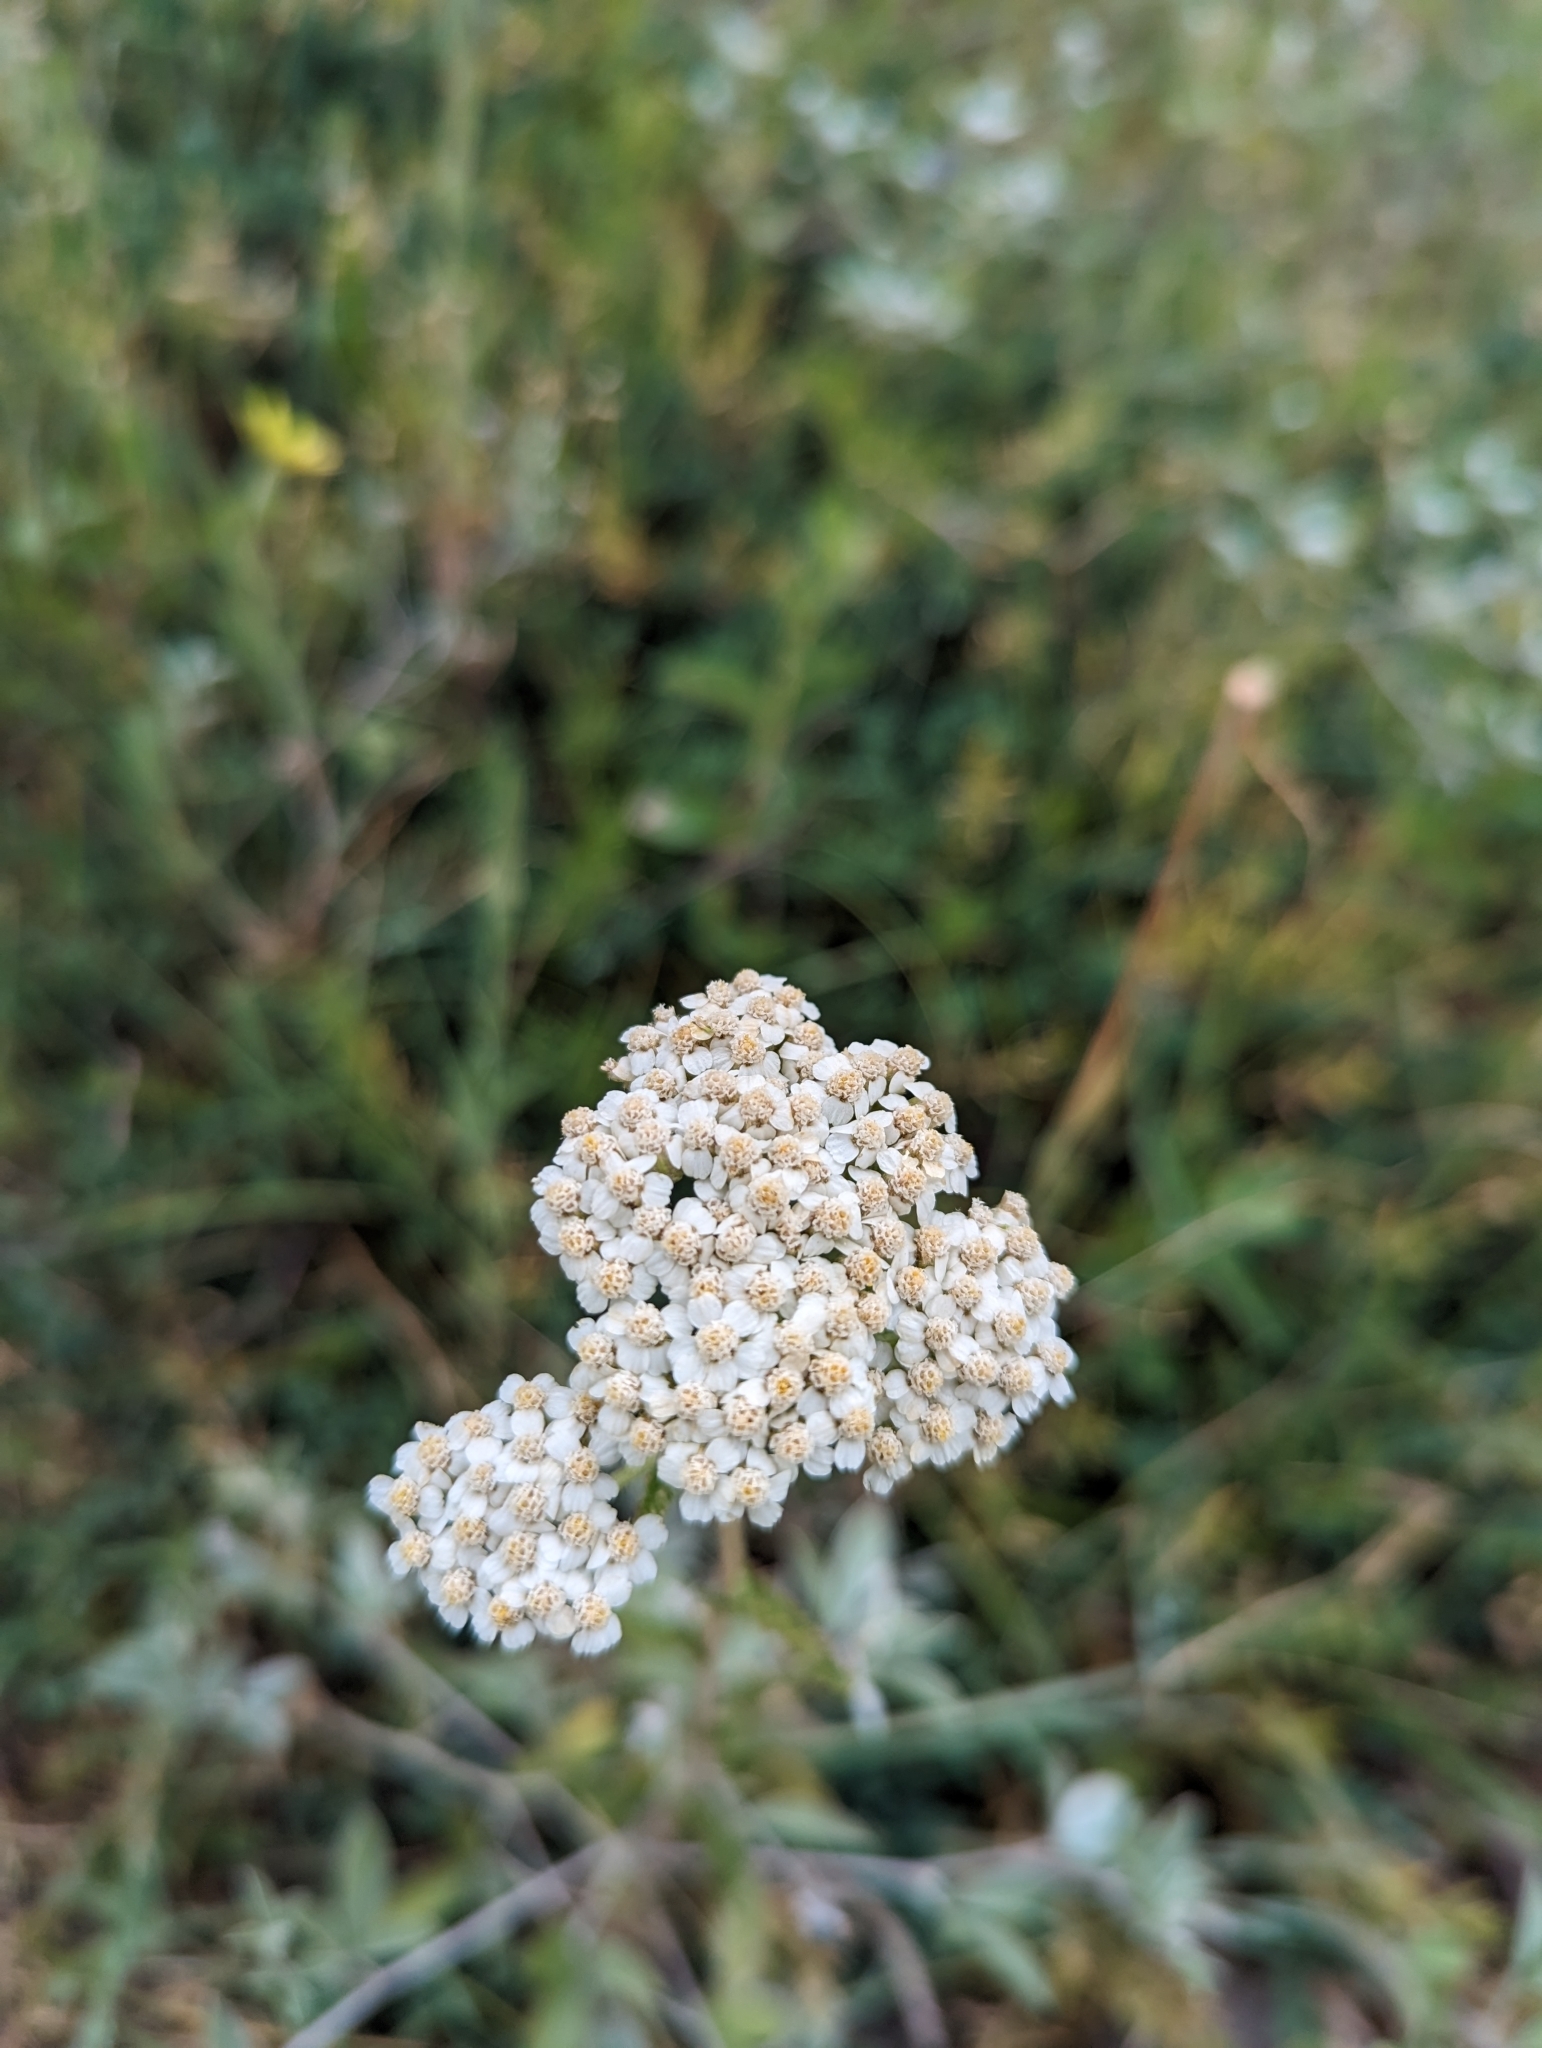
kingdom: Plantae
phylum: Tracheophyta
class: Magnoliopsida
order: Asterales
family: Asteraceae
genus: Achillea
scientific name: Achillea millefolium
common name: Yarrow
